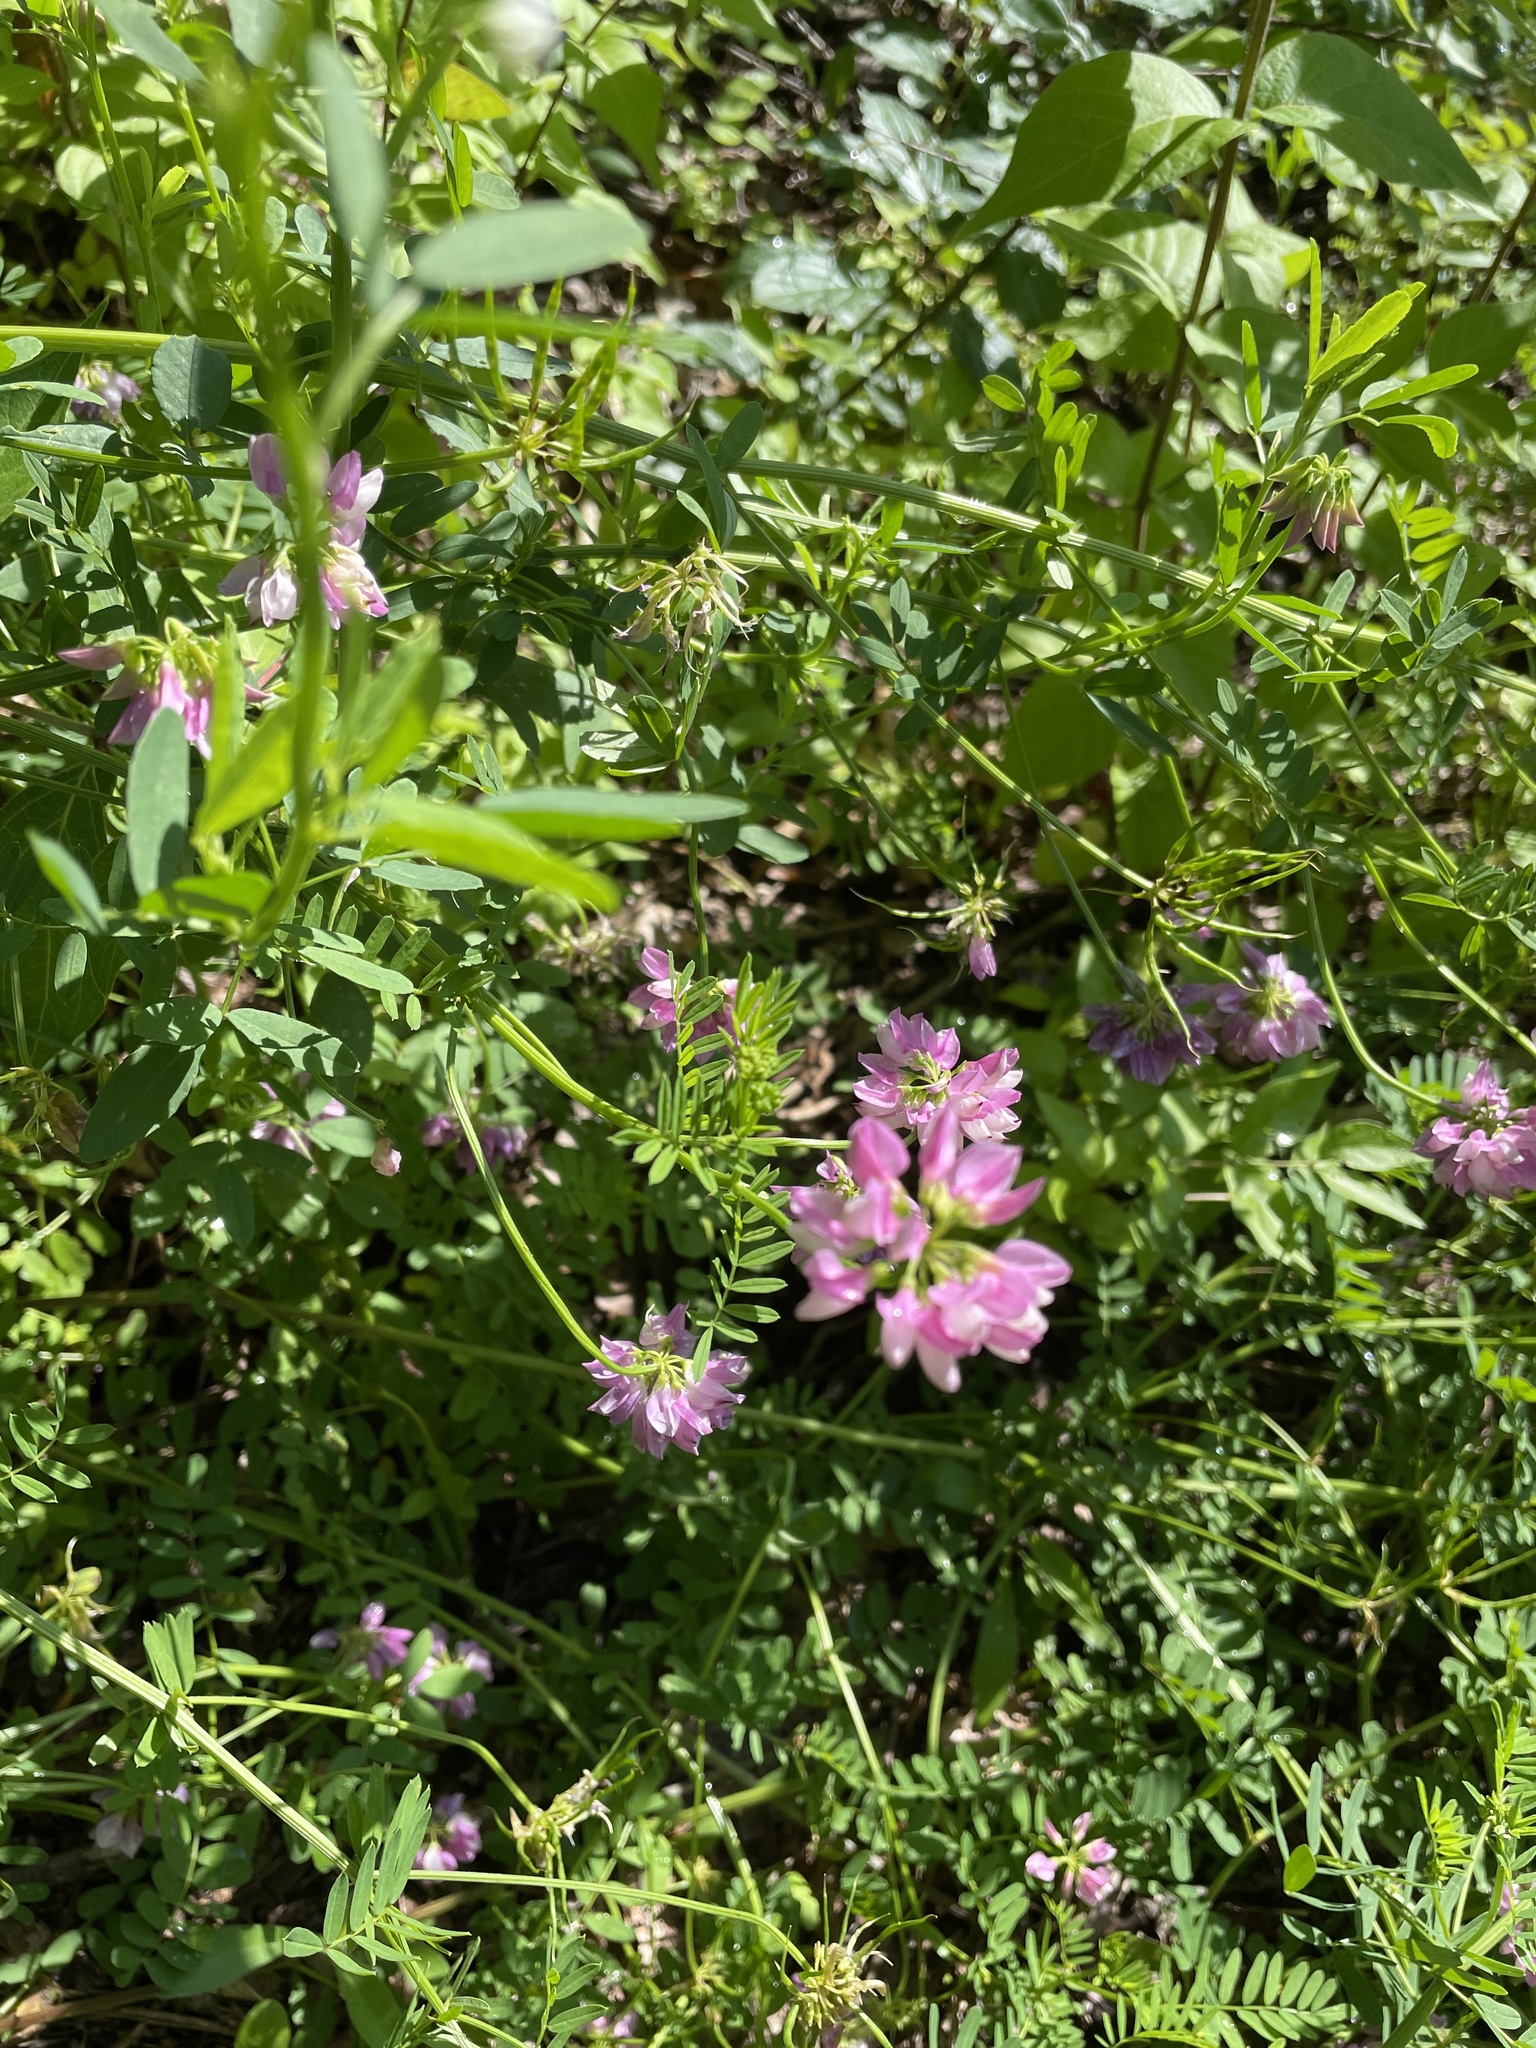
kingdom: Plantae
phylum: Tracheophyta
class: Magnoliopsida
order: Fabales
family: Fabaceae
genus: Coronilla
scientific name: Coronilla varia
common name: Crownvetch
